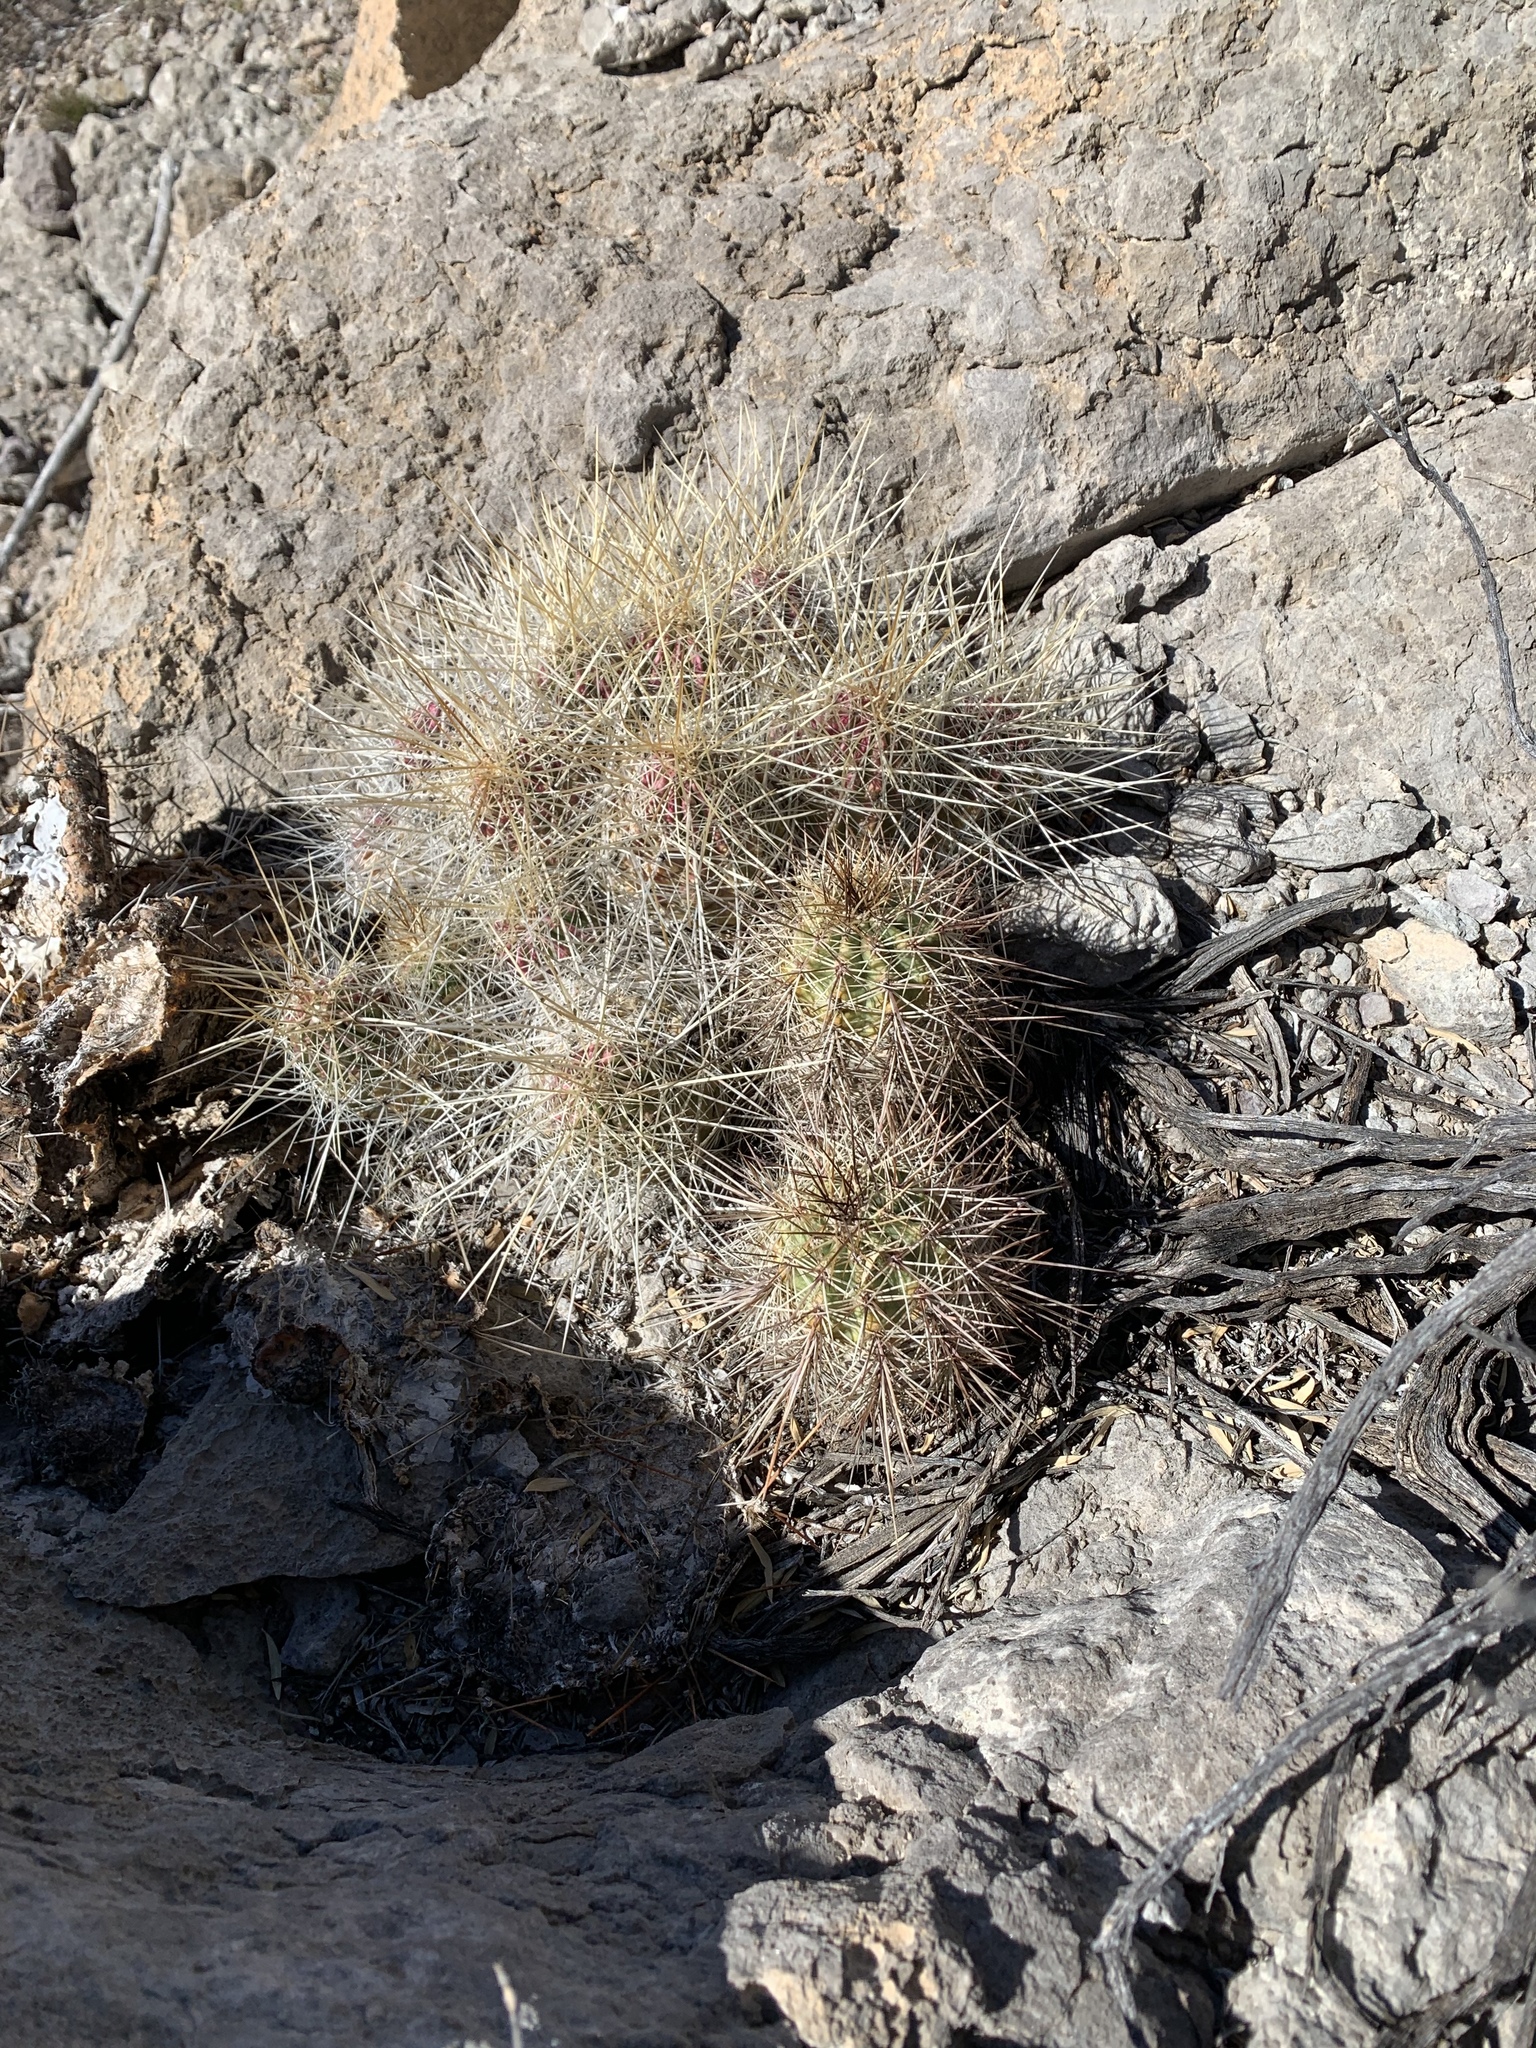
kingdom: Plantae
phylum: Tracheophyta
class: Magnoliopsida
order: Caryophyllales
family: Cactaceae
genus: Echinocereus
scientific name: Echinocereus coccineus
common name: Scarlet hedgehog cactus
